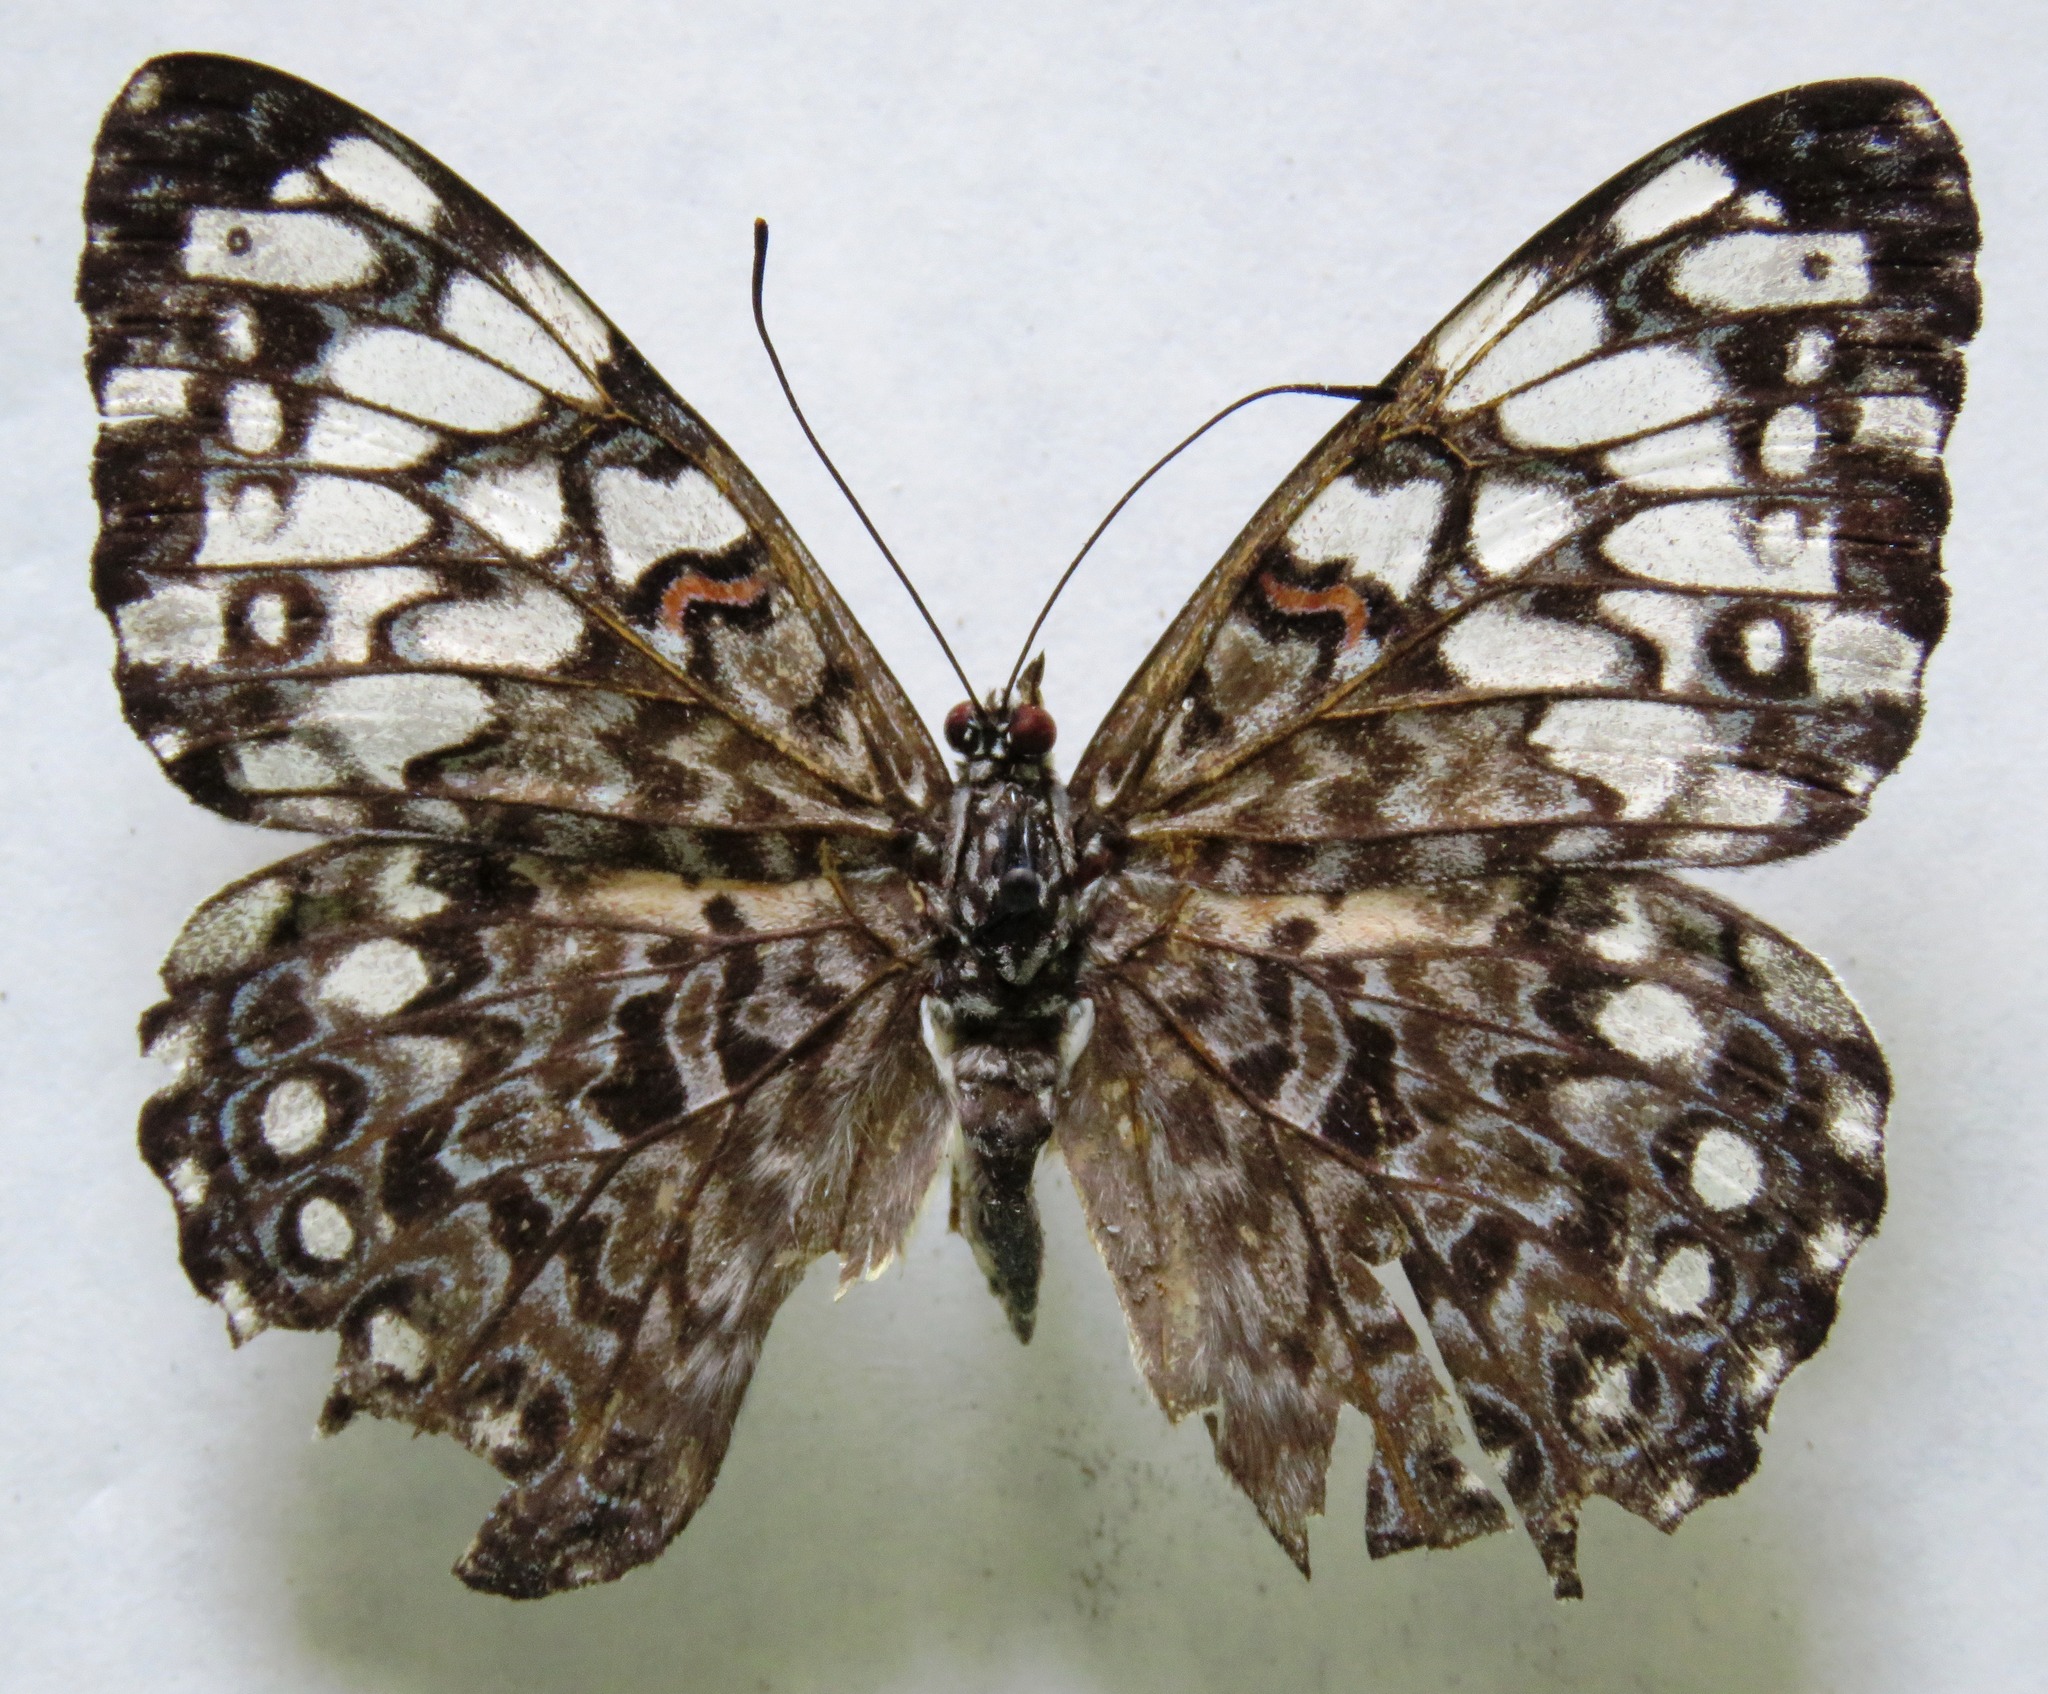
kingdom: Animalia
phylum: Arthropoda
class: Insecta
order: Lepidoptera
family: Nymphalidae
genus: Hamadryas
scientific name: Hamadryas feronia
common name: Variable cracker
